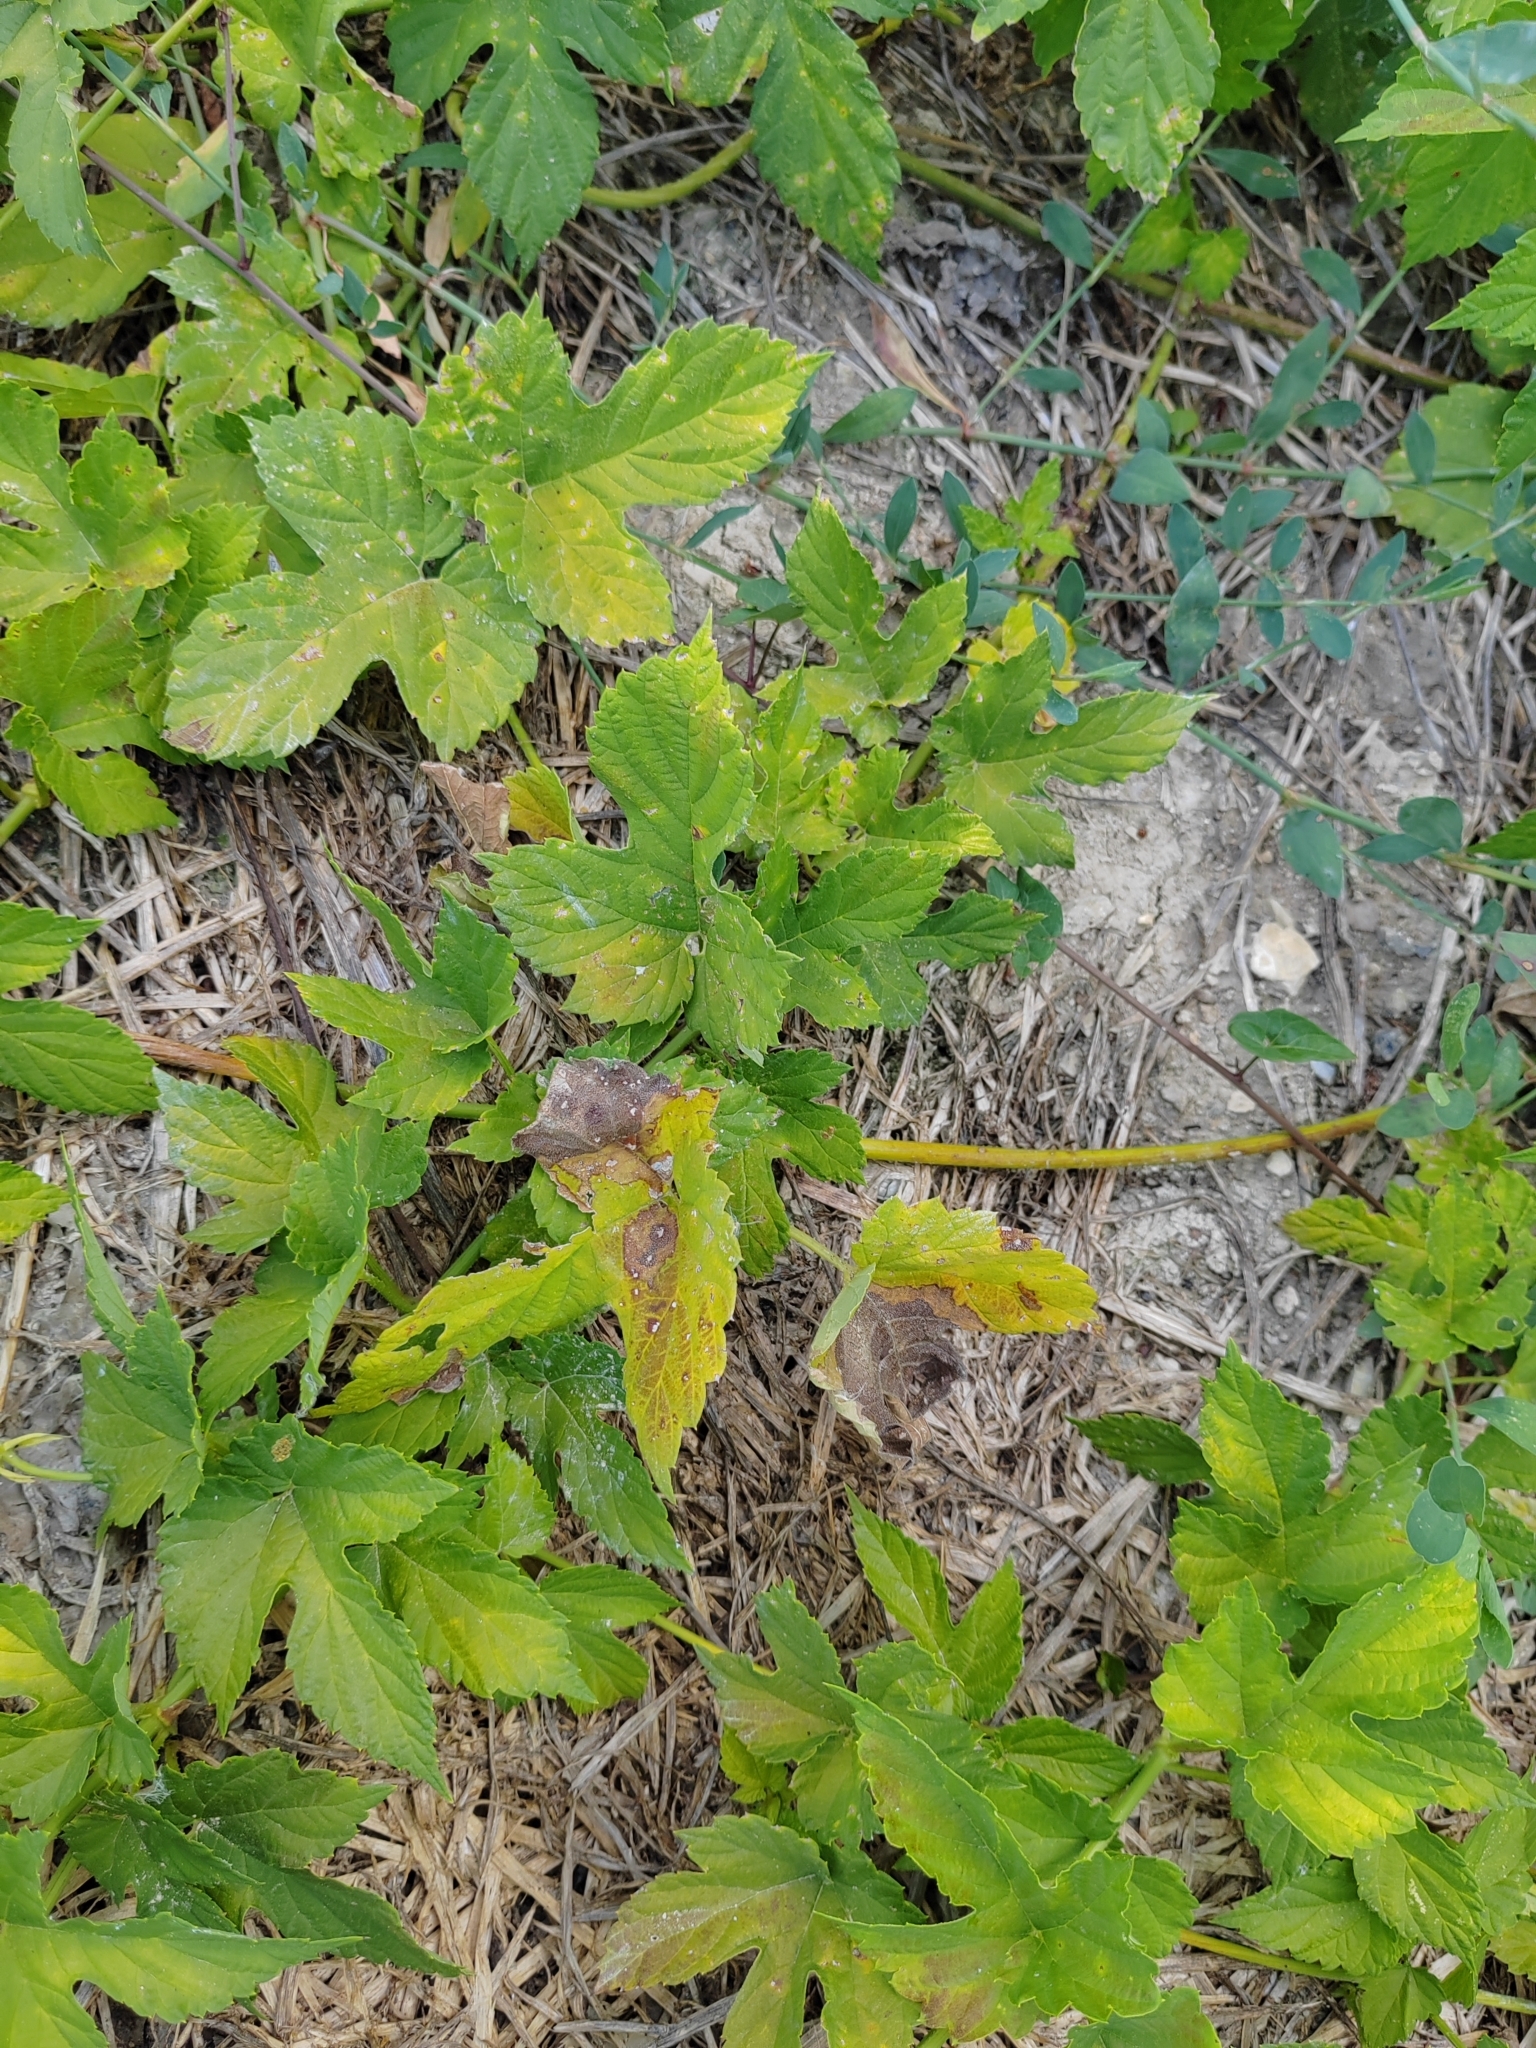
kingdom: Plantae
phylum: Tracheophyta
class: Magnoliopsida
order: Rosales
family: Cannabaceae
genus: Humulus
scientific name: Humulus lupulus
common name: Hop
